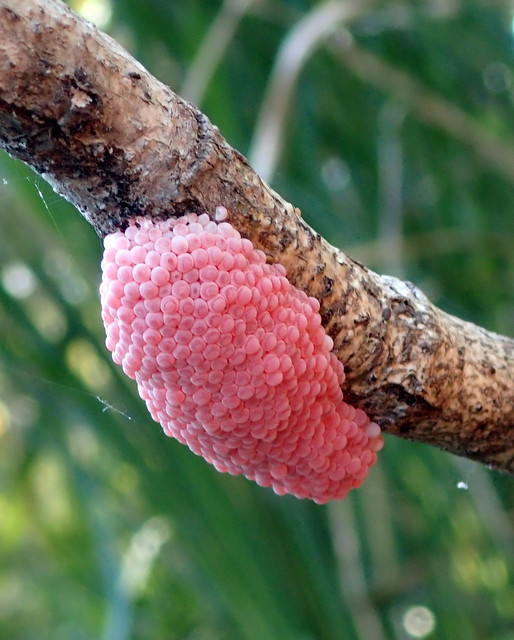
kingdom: Animalia
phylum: Mollusca
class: Gastropoda
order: Architaenioglossa
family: Ampullariidae
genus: Pomacea
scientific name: Pomacea maculata
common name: Giant applesnail
